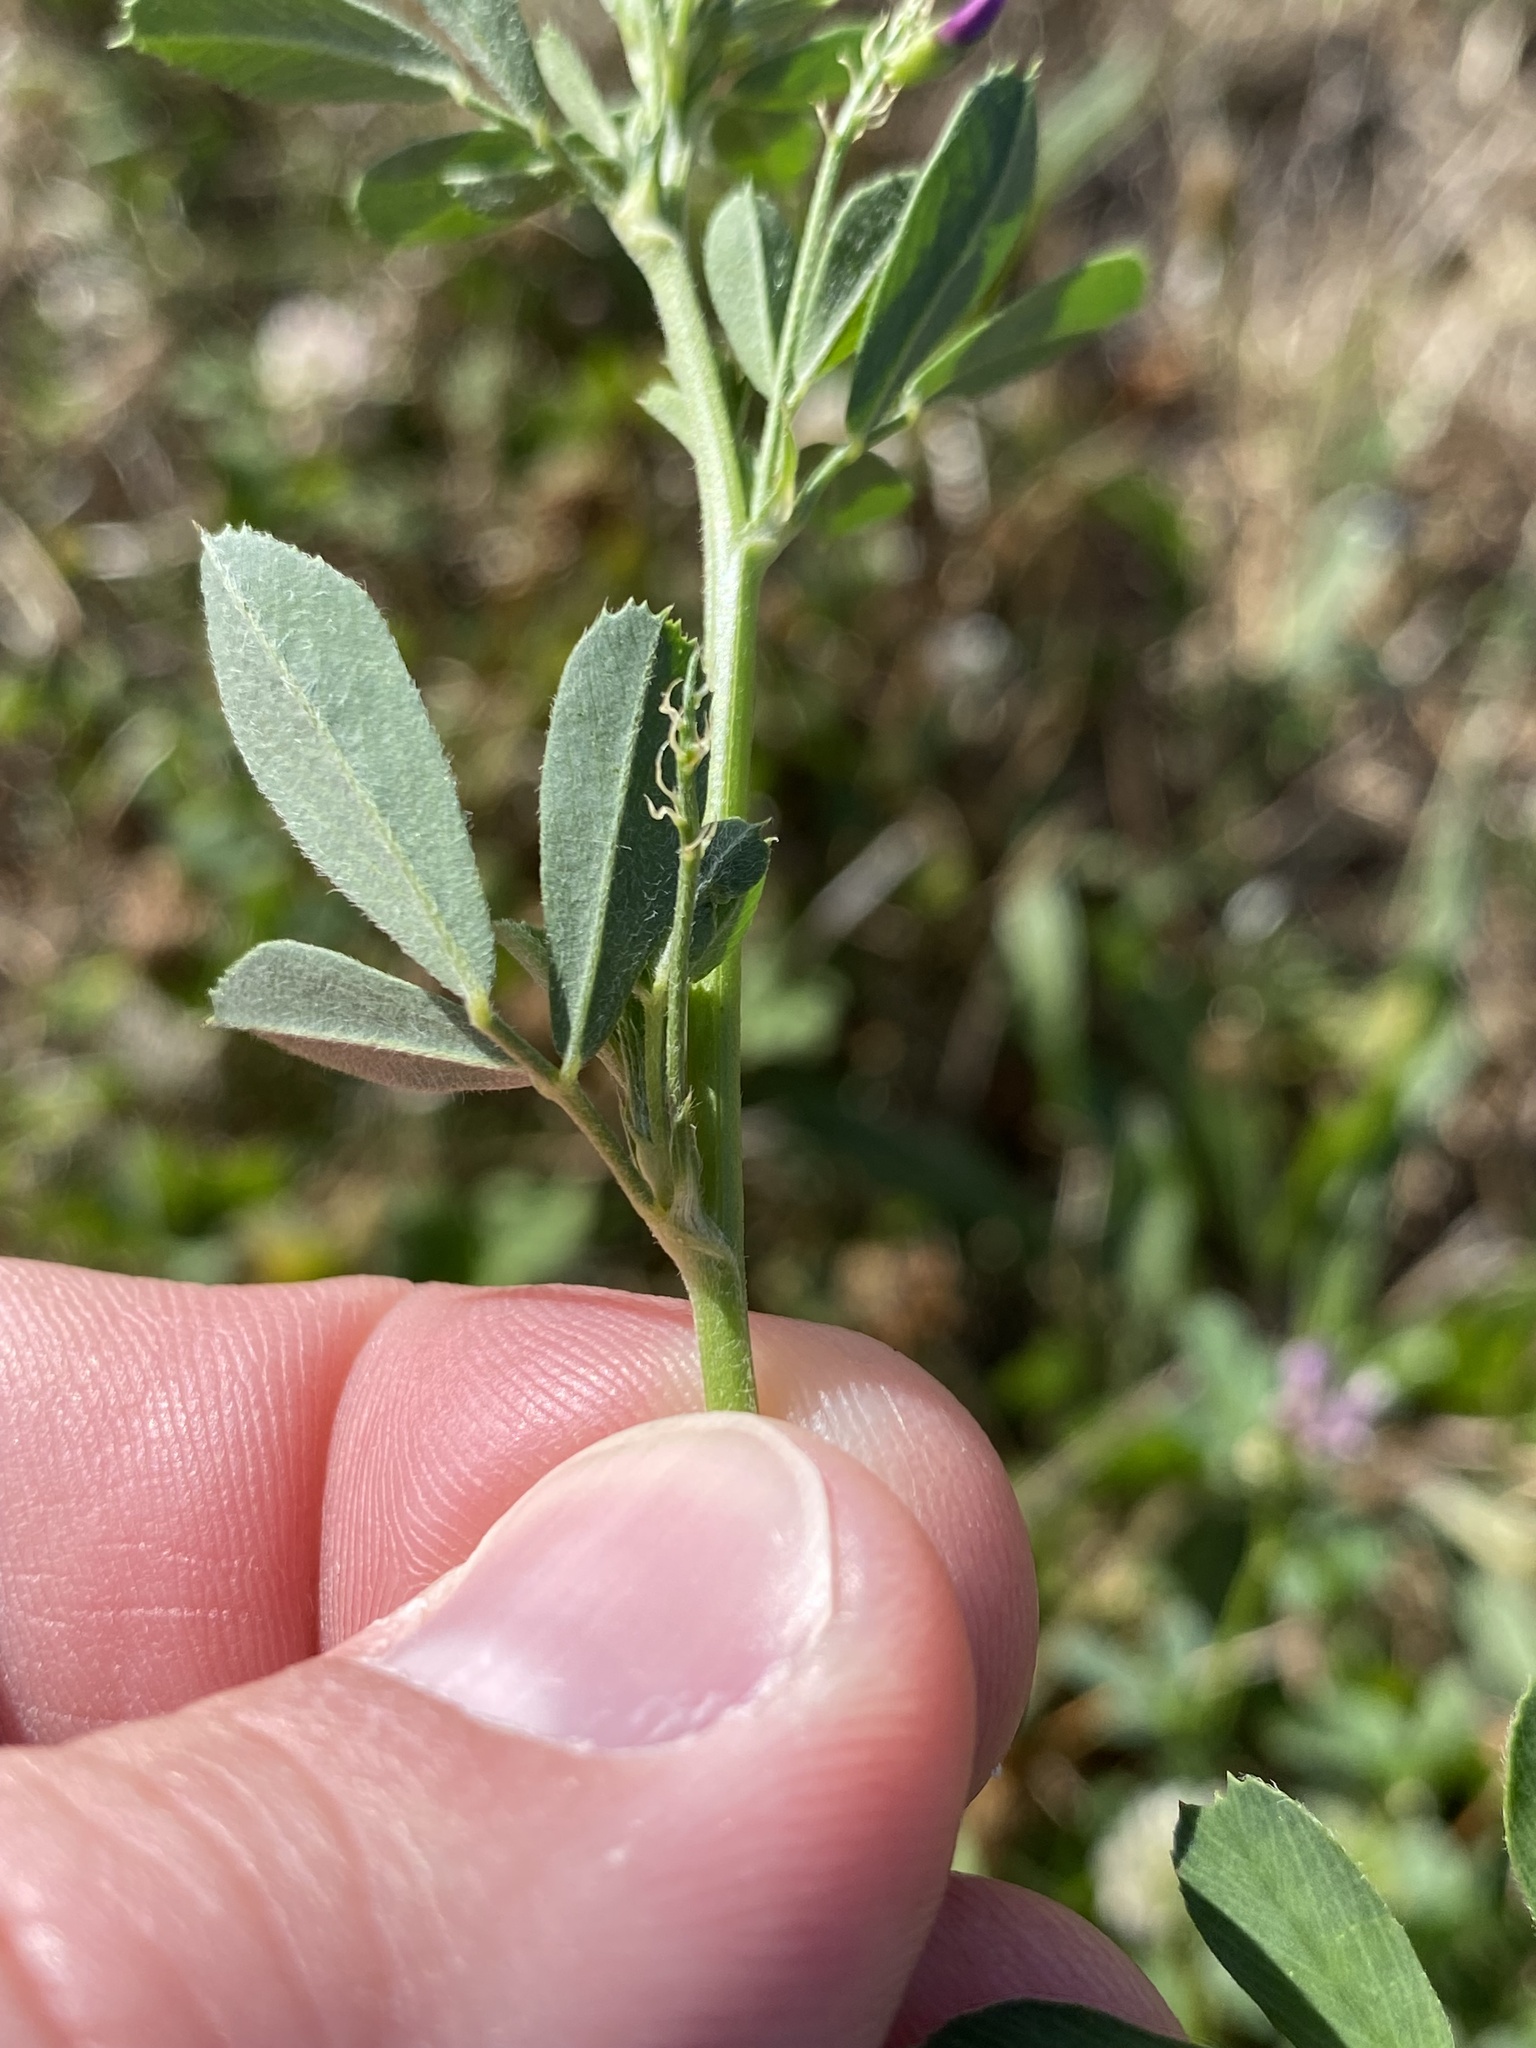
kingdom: Plantae
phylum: Tracheophyta
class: Magnoliopsida
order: Fabales
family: Fabaceae
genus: Medicago
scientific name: Medicago sativa
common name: Alfalfa
